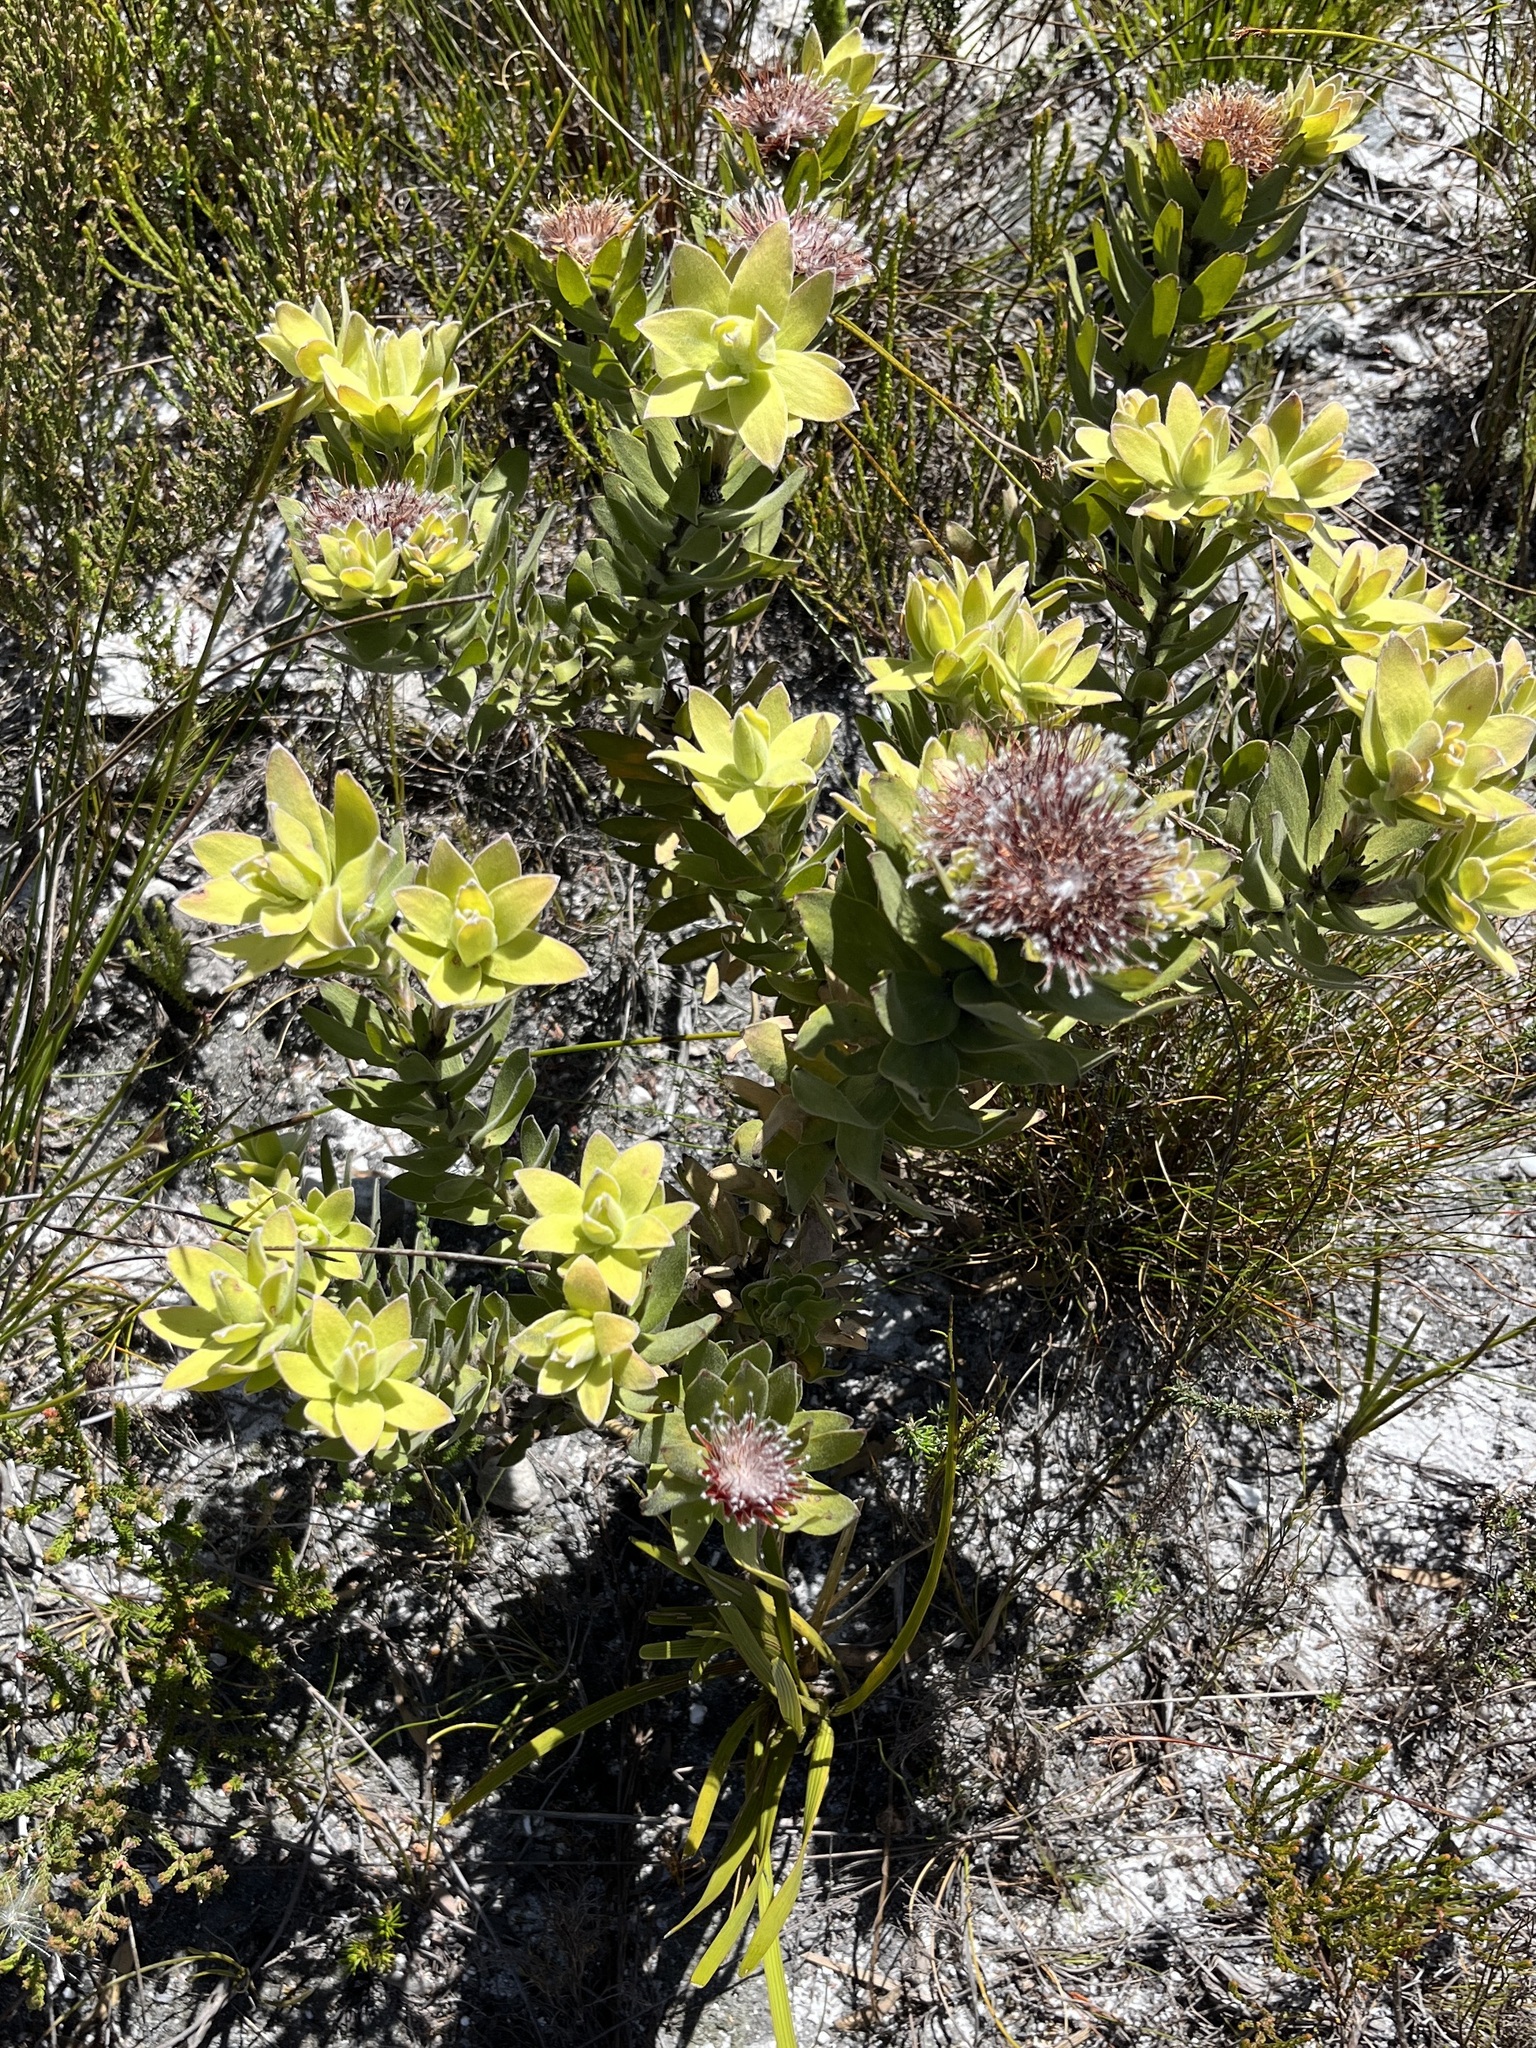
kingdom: Plantae
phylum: Tracheophyta
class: Magnoliopsida
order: Proteales
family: Proteaceae
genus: Leucospermum
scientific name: Leucospermum oleifolium
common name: Matches
